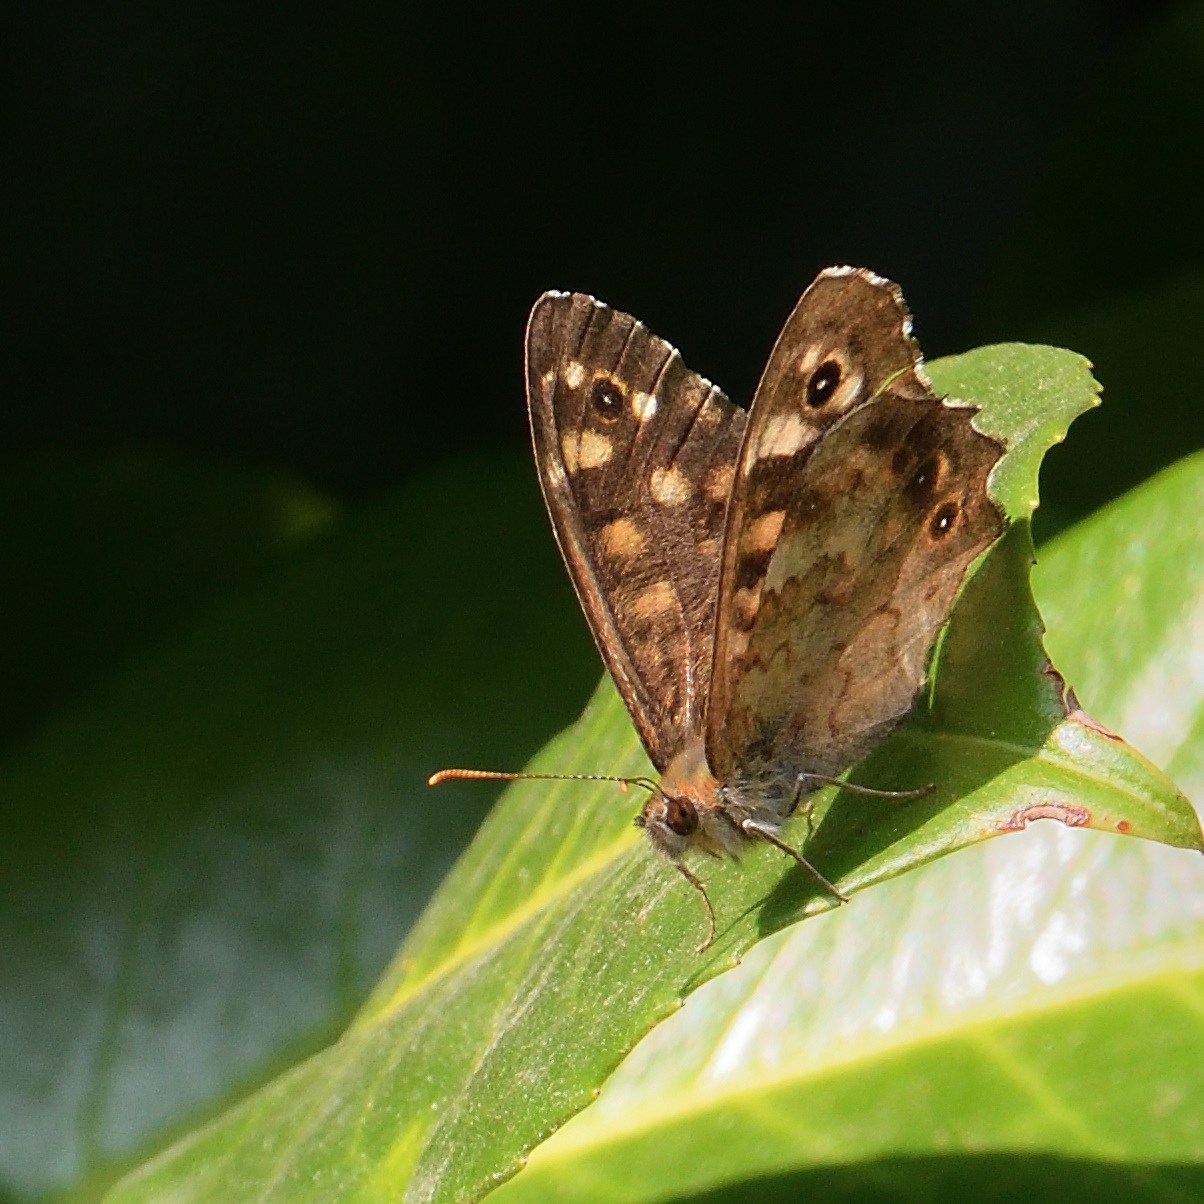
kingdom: Animalia
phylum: Arthropoda
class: Insecta
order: Lepidoptera
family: Nymphalidae
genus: Pararge
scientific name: Pararge aegeria
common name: Speckled wood
